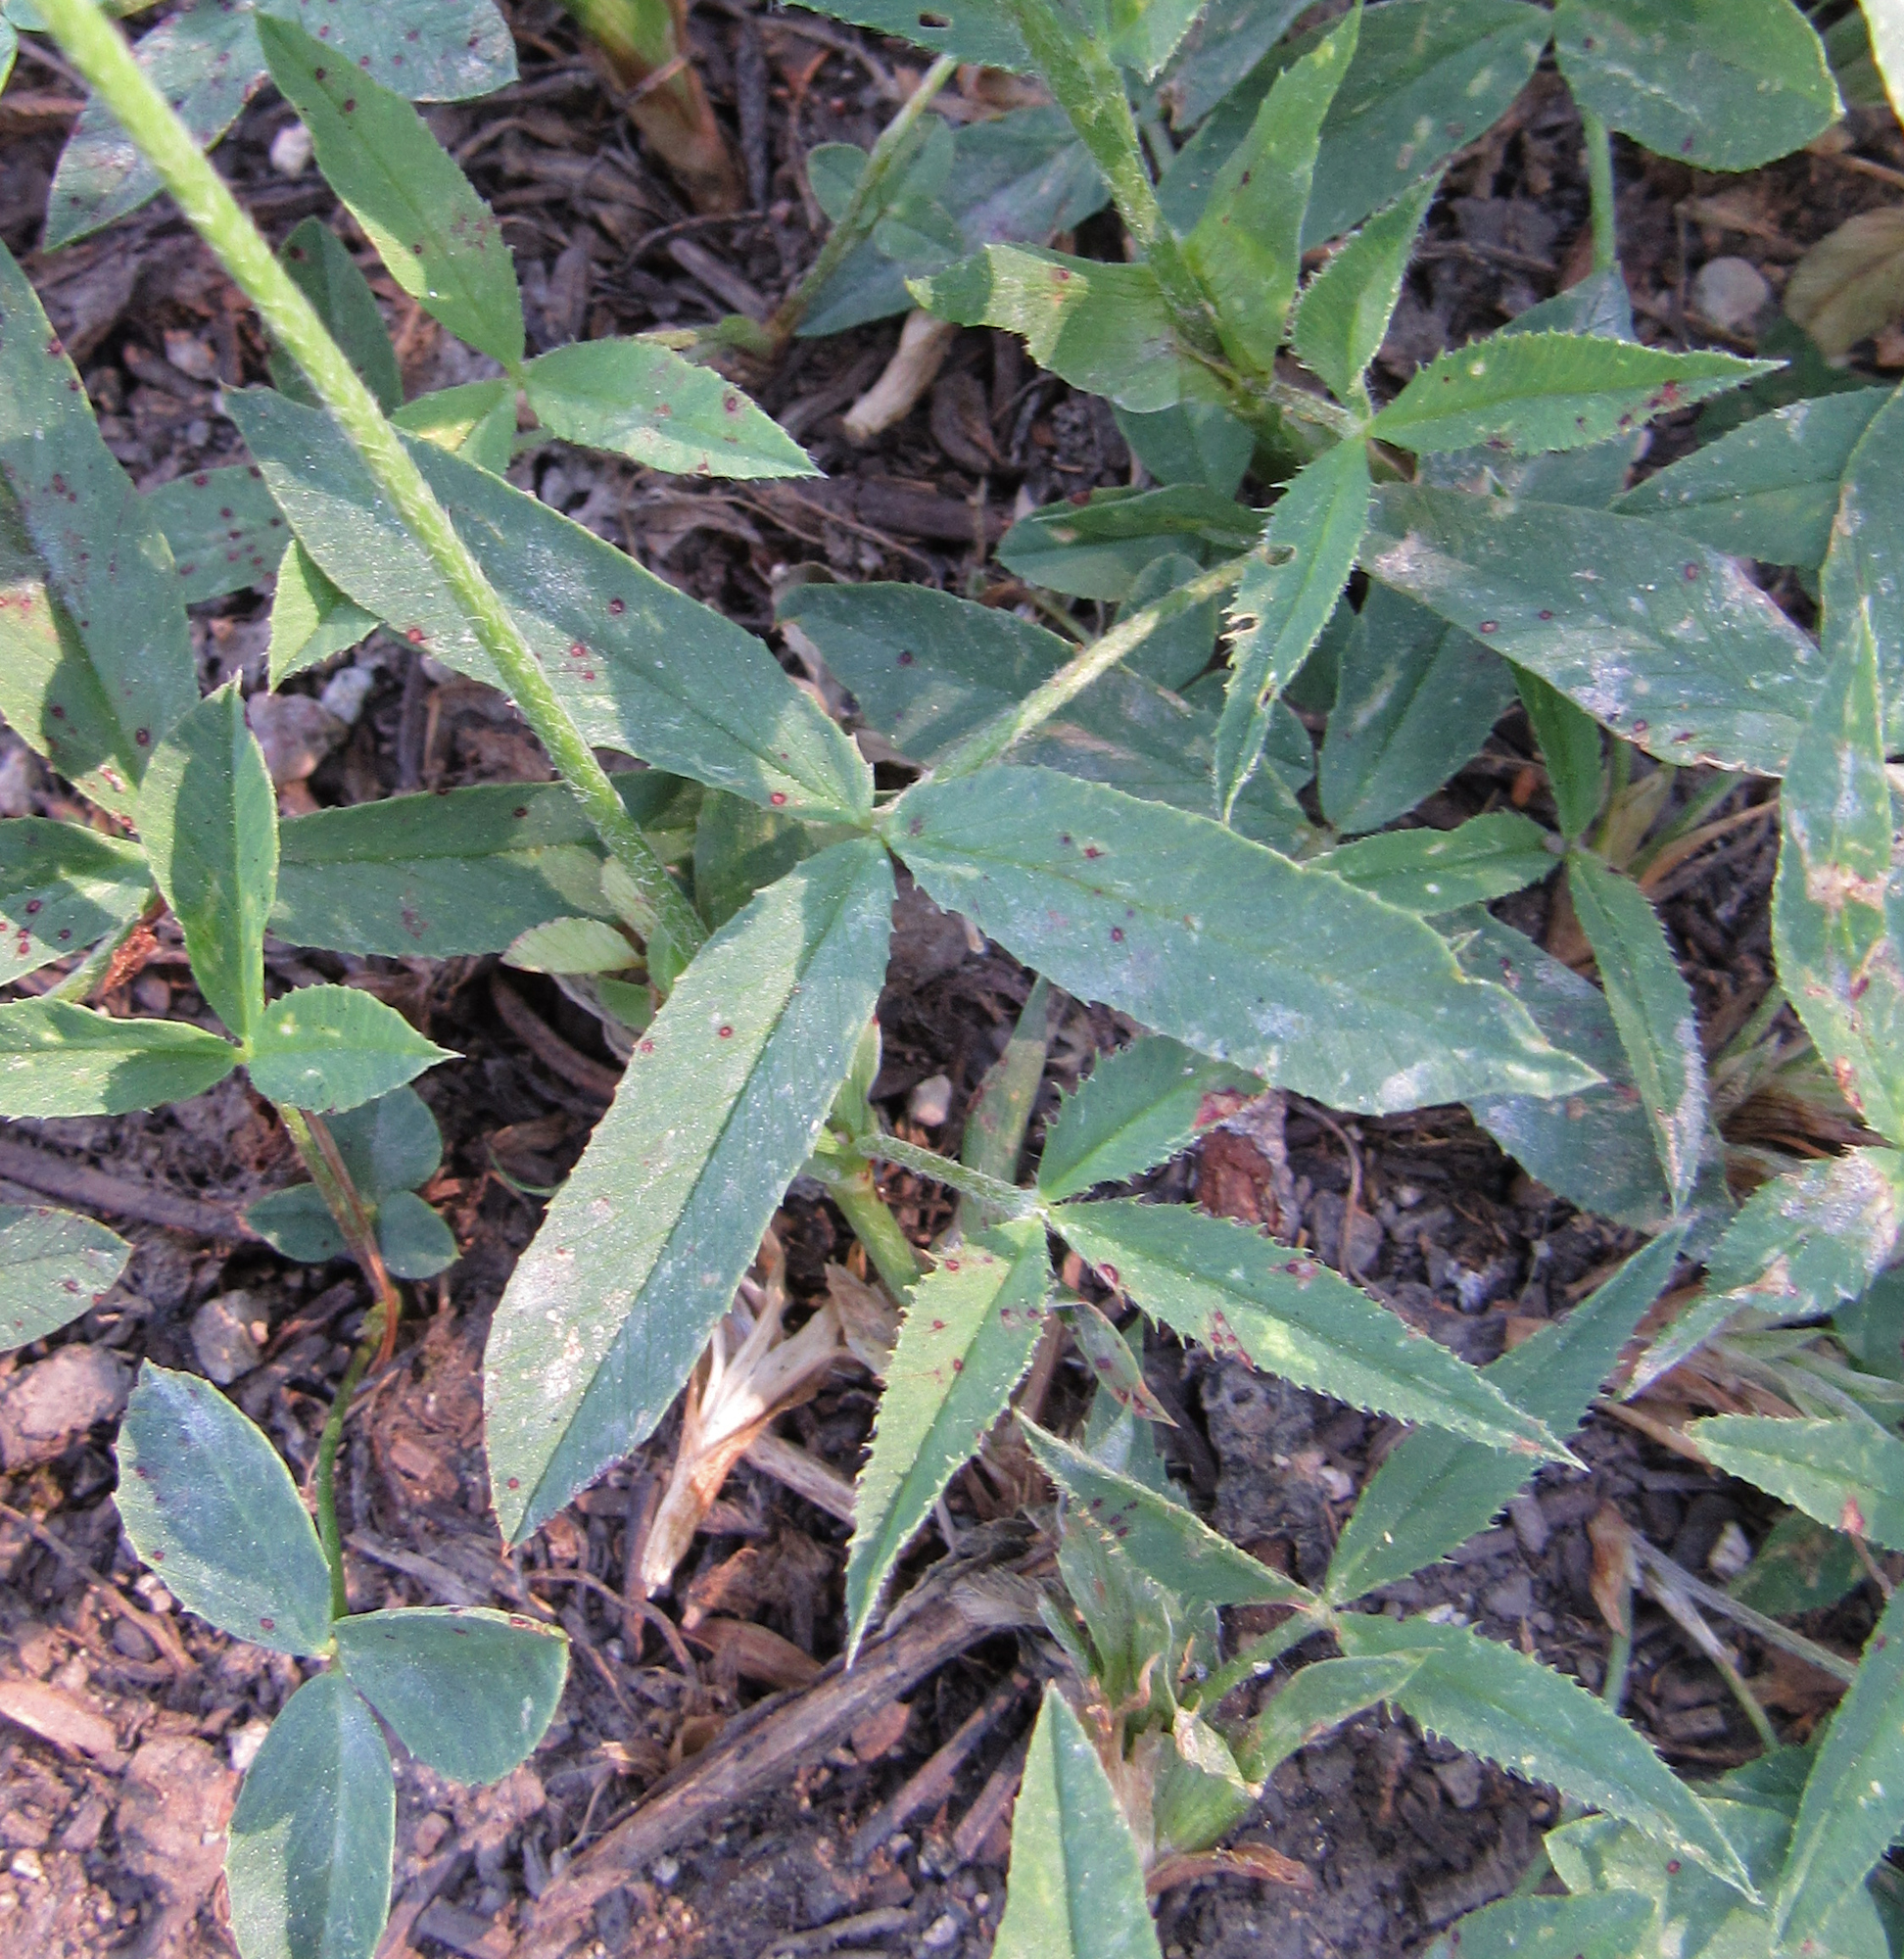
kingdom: Plantae
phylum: Tracheophyta
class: Magnoliopsida
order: Fabales
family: Fabaceae
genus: Trifolium
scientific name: Trifolium longipes
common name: Long-stalk clover
